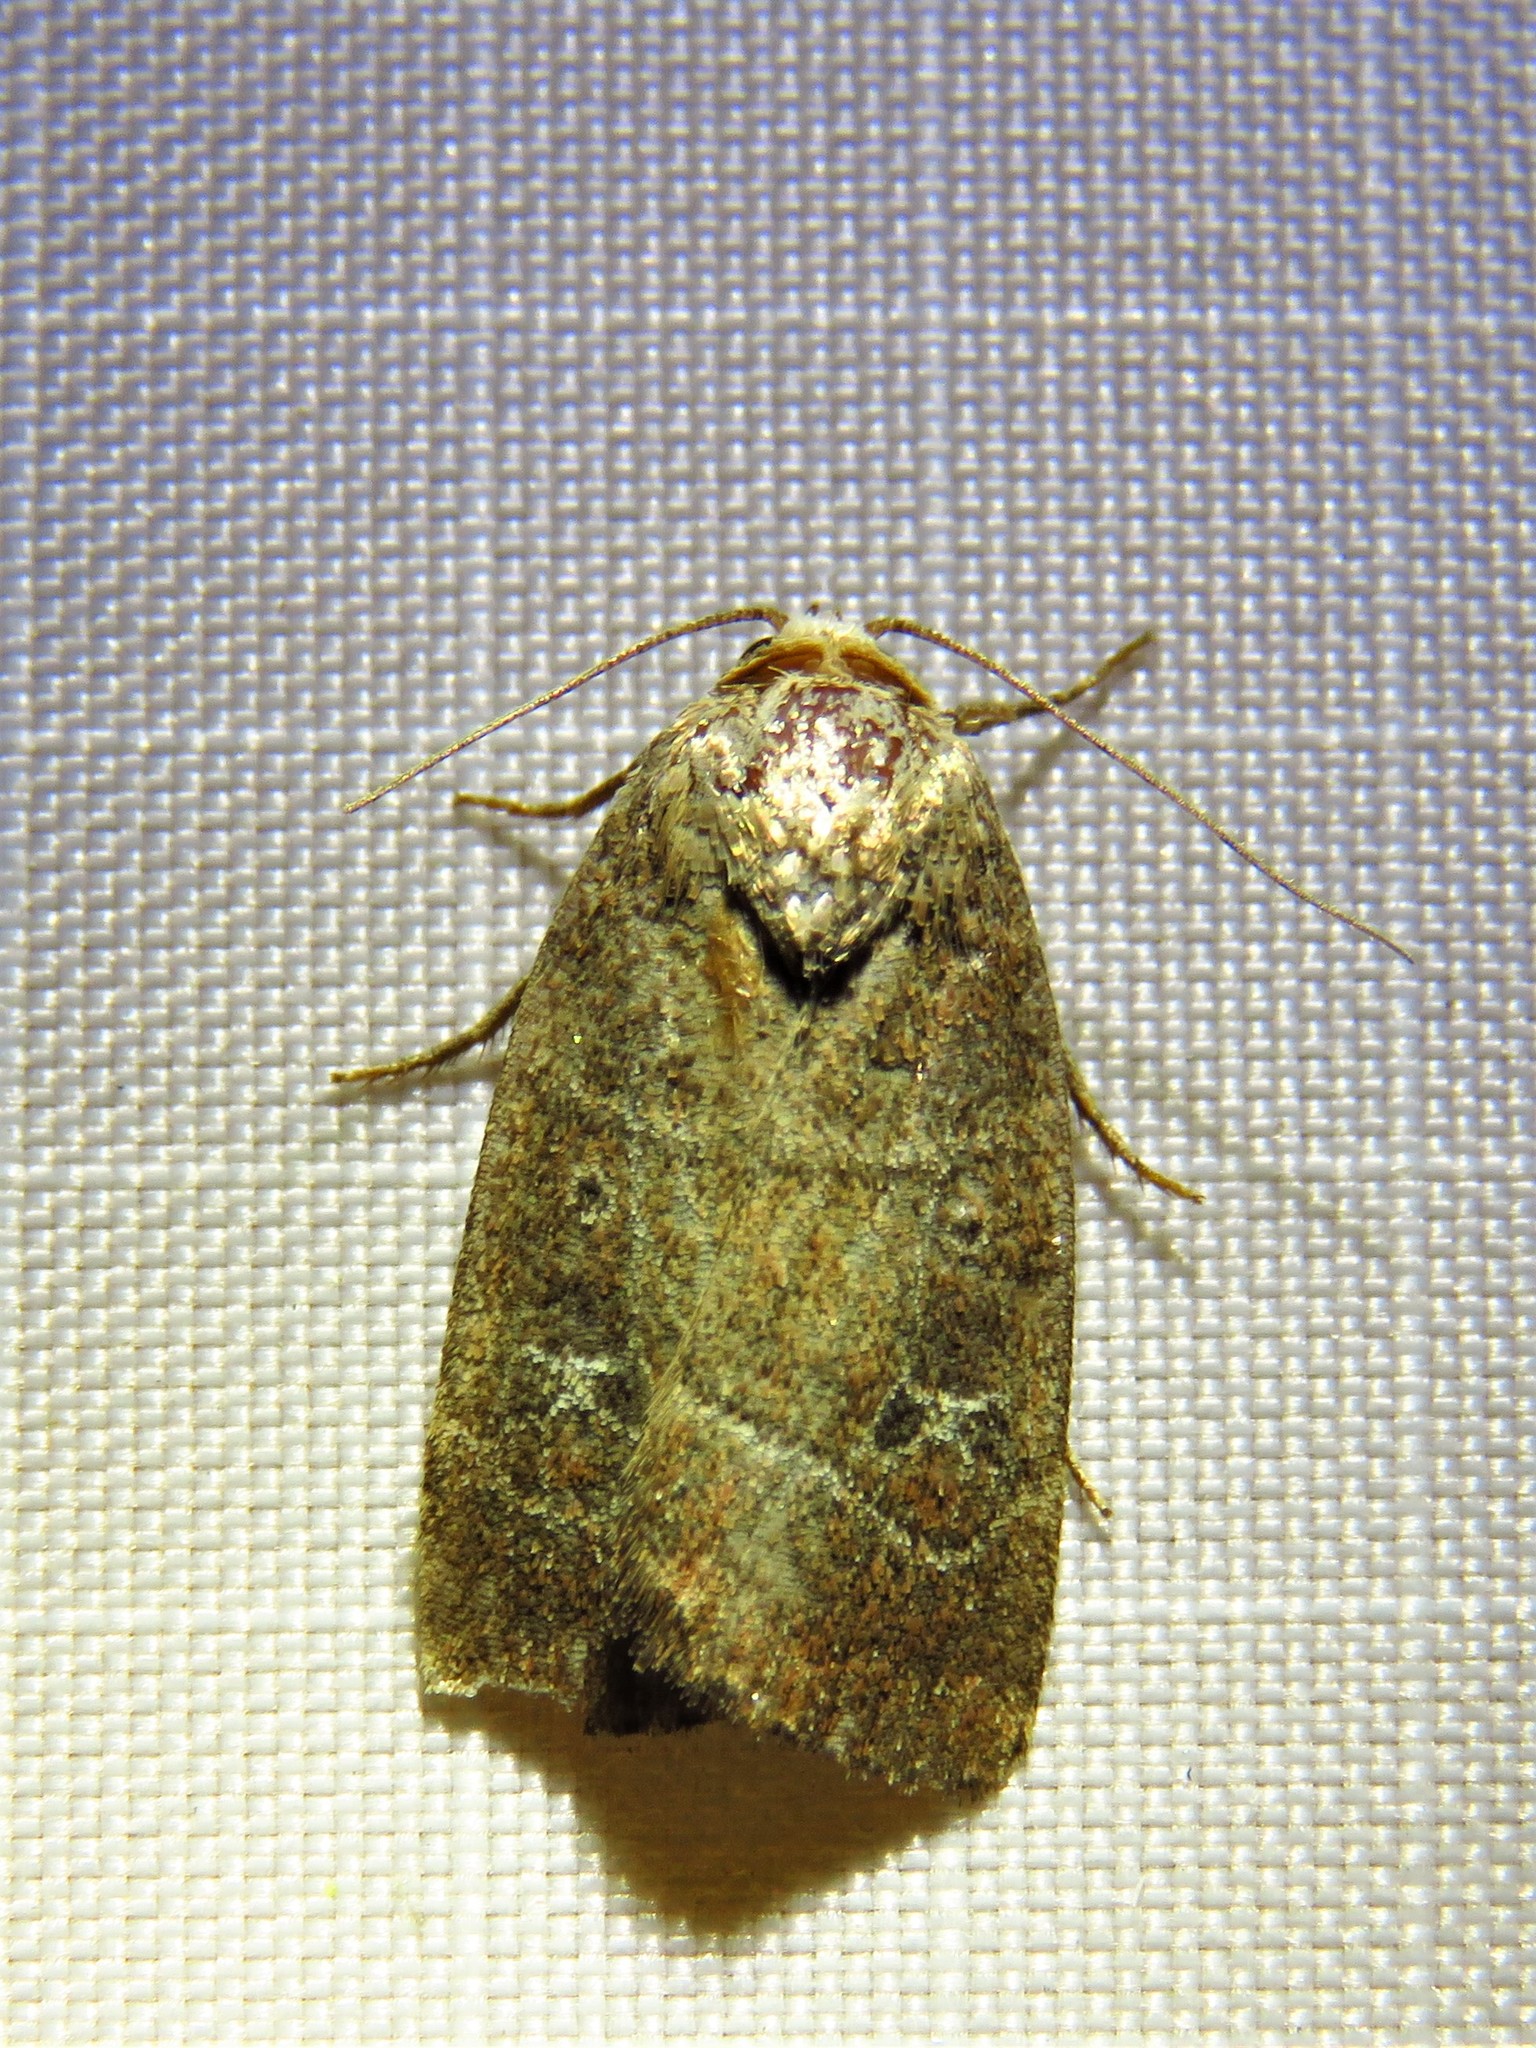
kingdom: Animalia
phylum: Arthropoda
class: Insecta
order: Lepidoptera
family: Noctuidae
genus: Elaphria
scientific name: Elaphria grata
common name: Grateful midget moth
